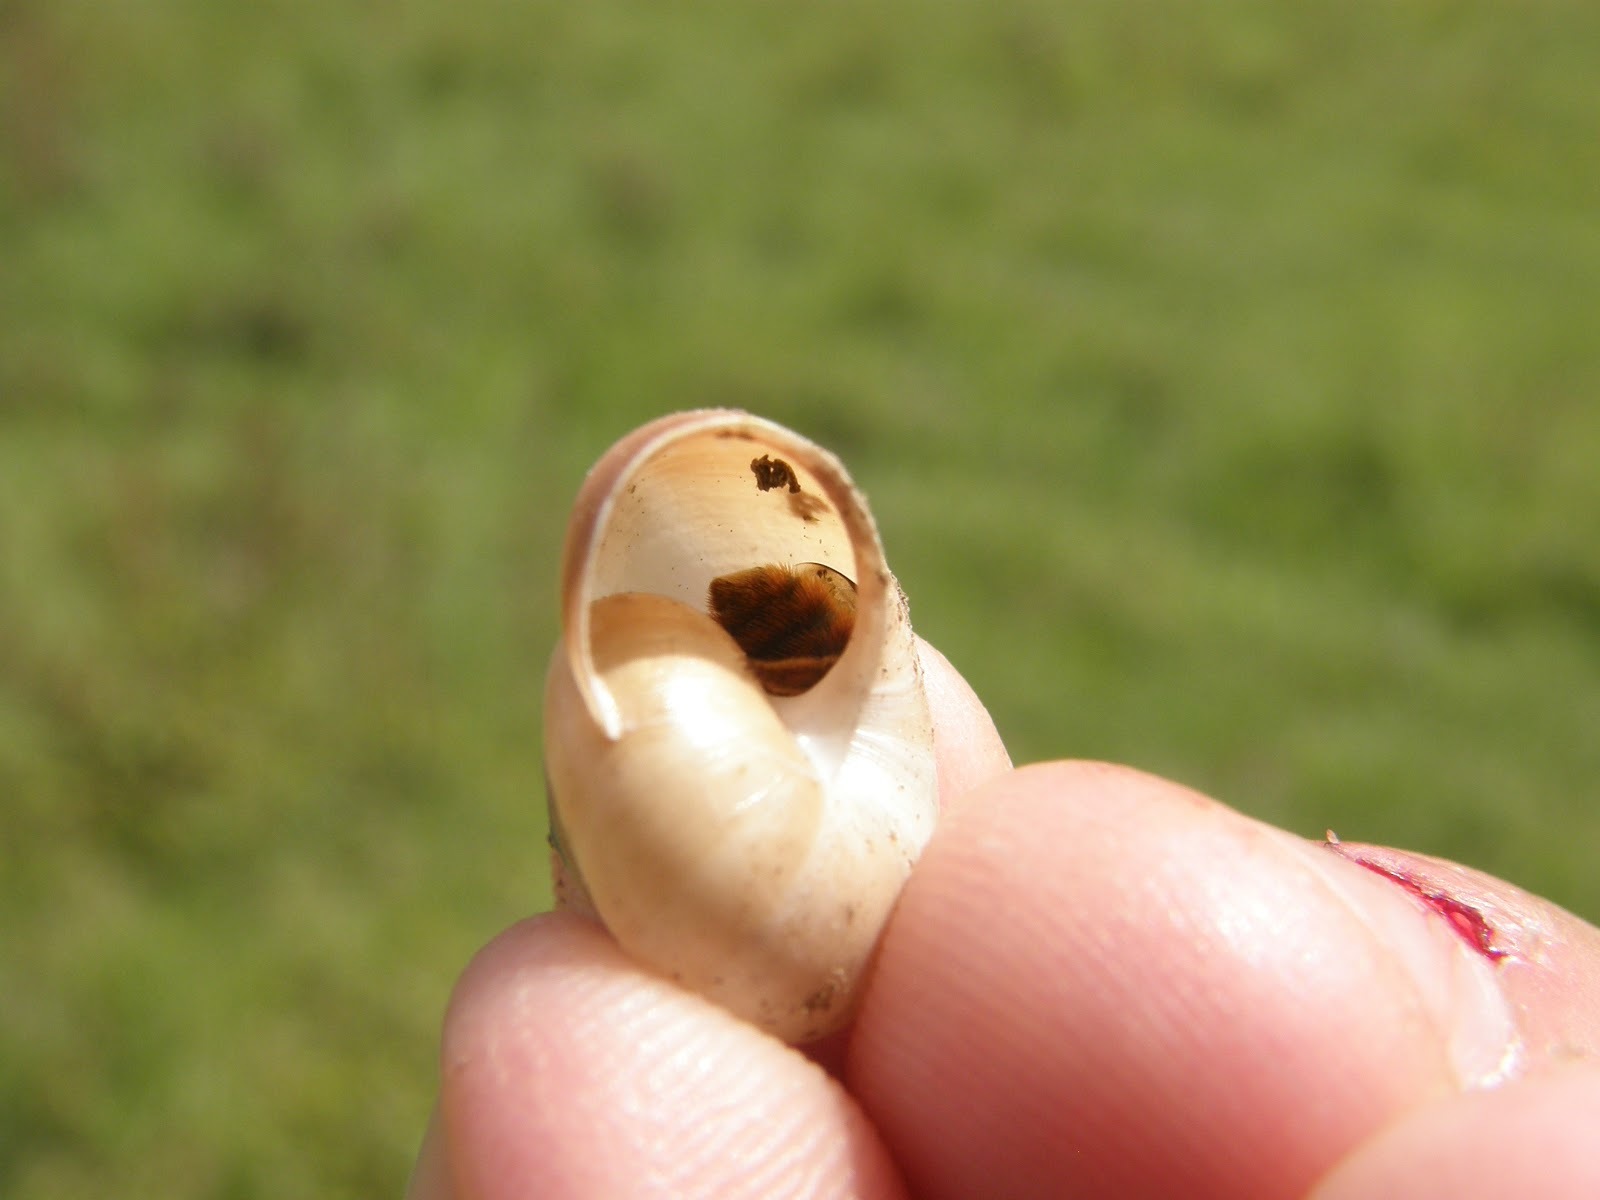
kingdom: Animalia
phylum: Arthropoda
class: Insecta
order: Hymenoptera
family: Megachilidae
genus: Osmia
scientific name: Osmia bicolor
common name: Red-tailed mason bee
